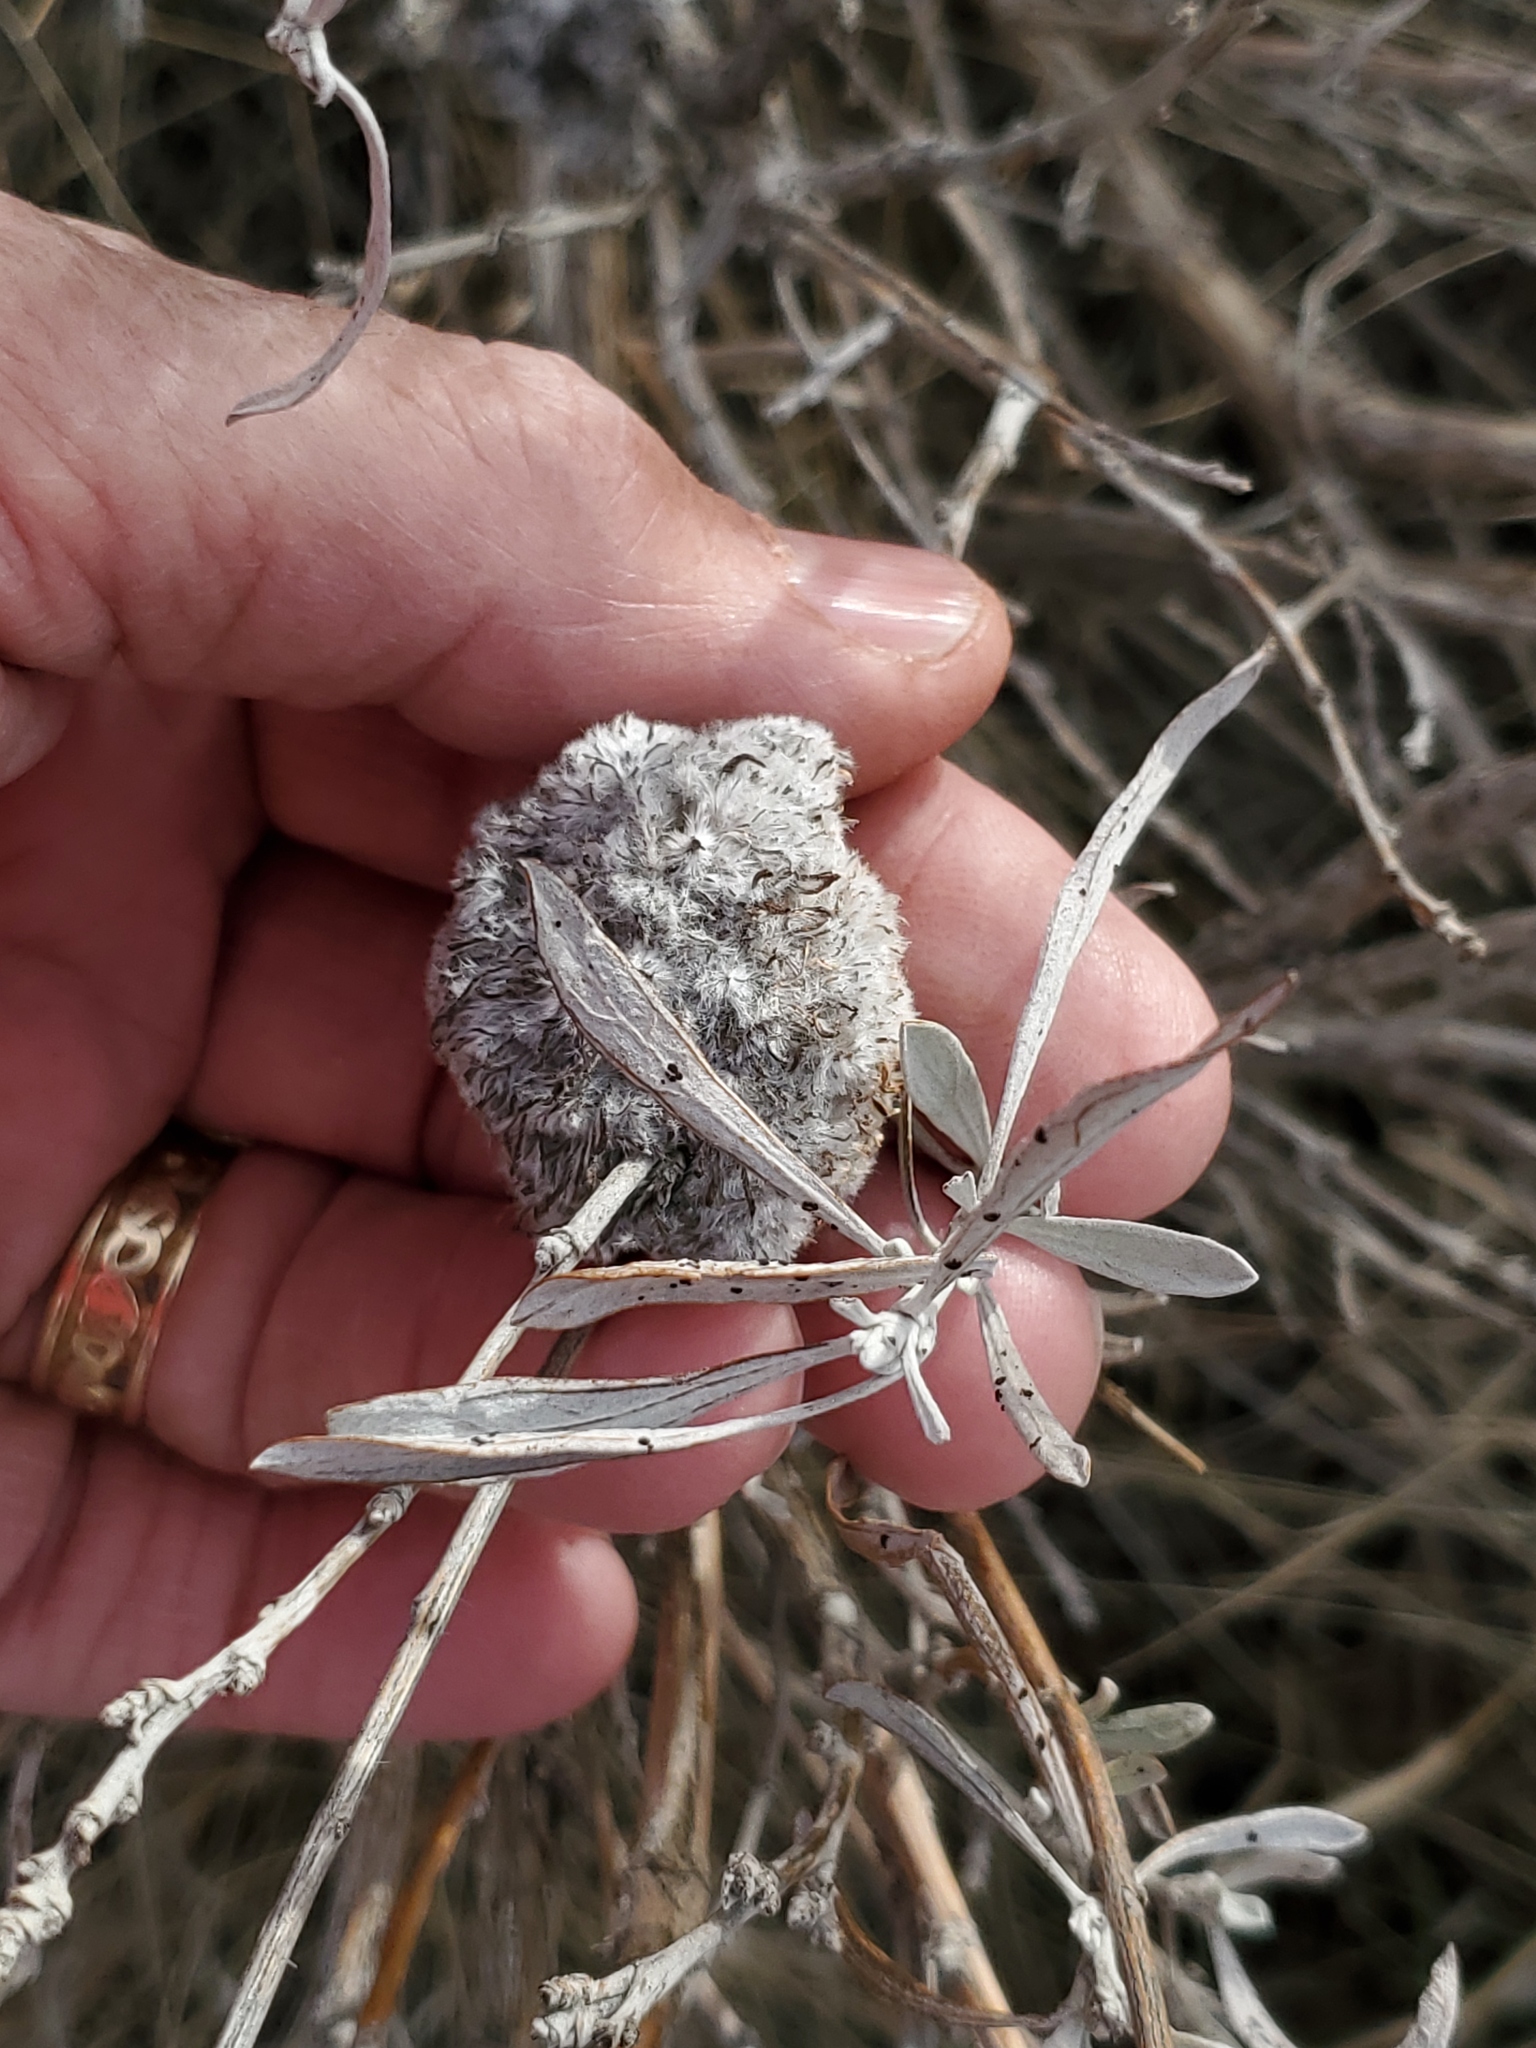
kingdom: Animalia
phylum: Arthropoda
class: Insecta
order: Diptera
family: Cecidomyiidae
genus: Rhopalomyia
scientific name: Rhopalomyia medusirrasa
